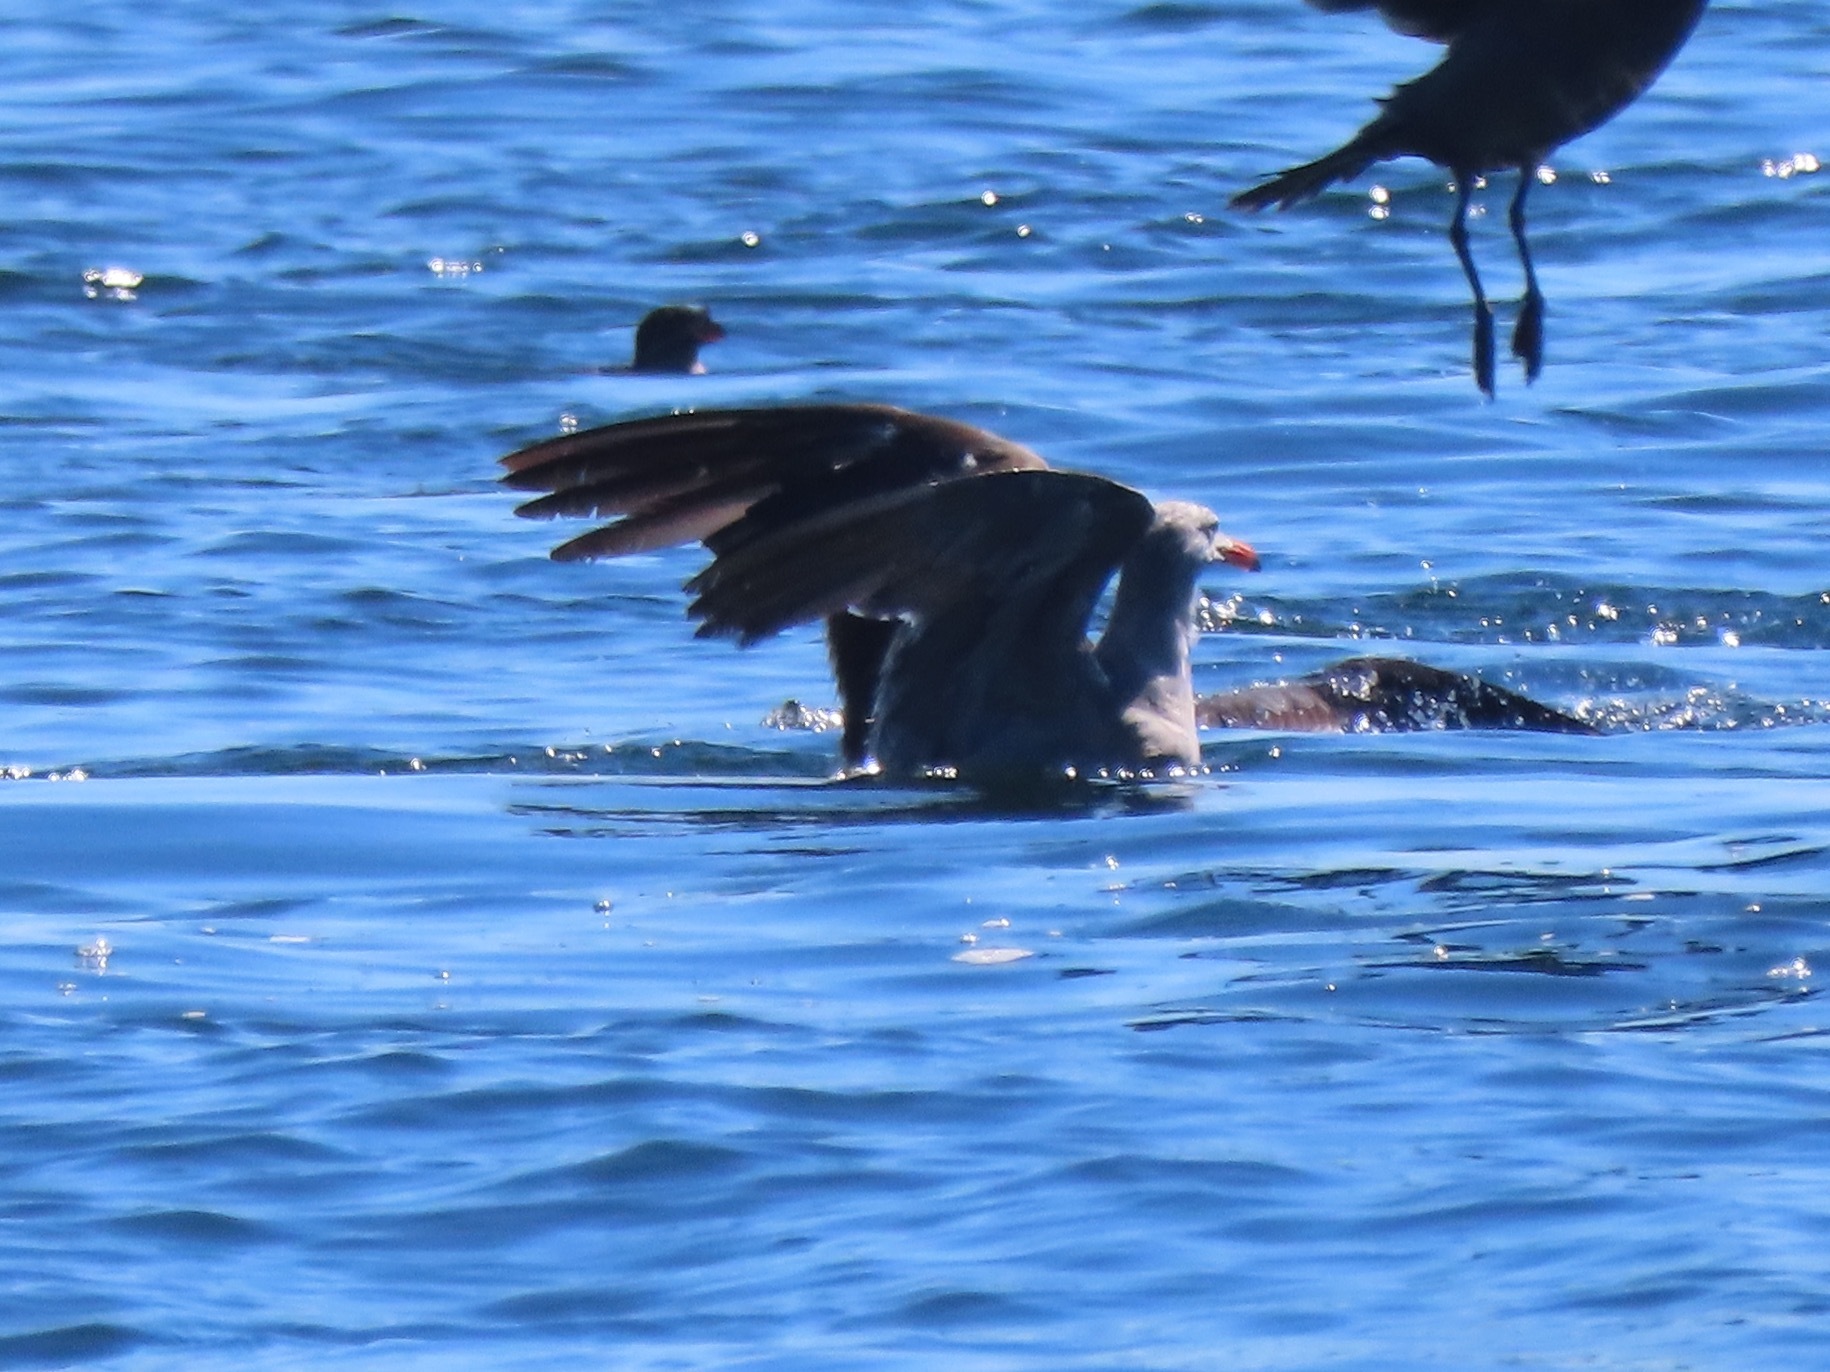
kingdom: Animalia
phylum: Chordata
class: Aves
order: Charadriiformes
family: Laridae
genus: Larus
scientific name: Larus heermanni
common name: Heermann's gull
